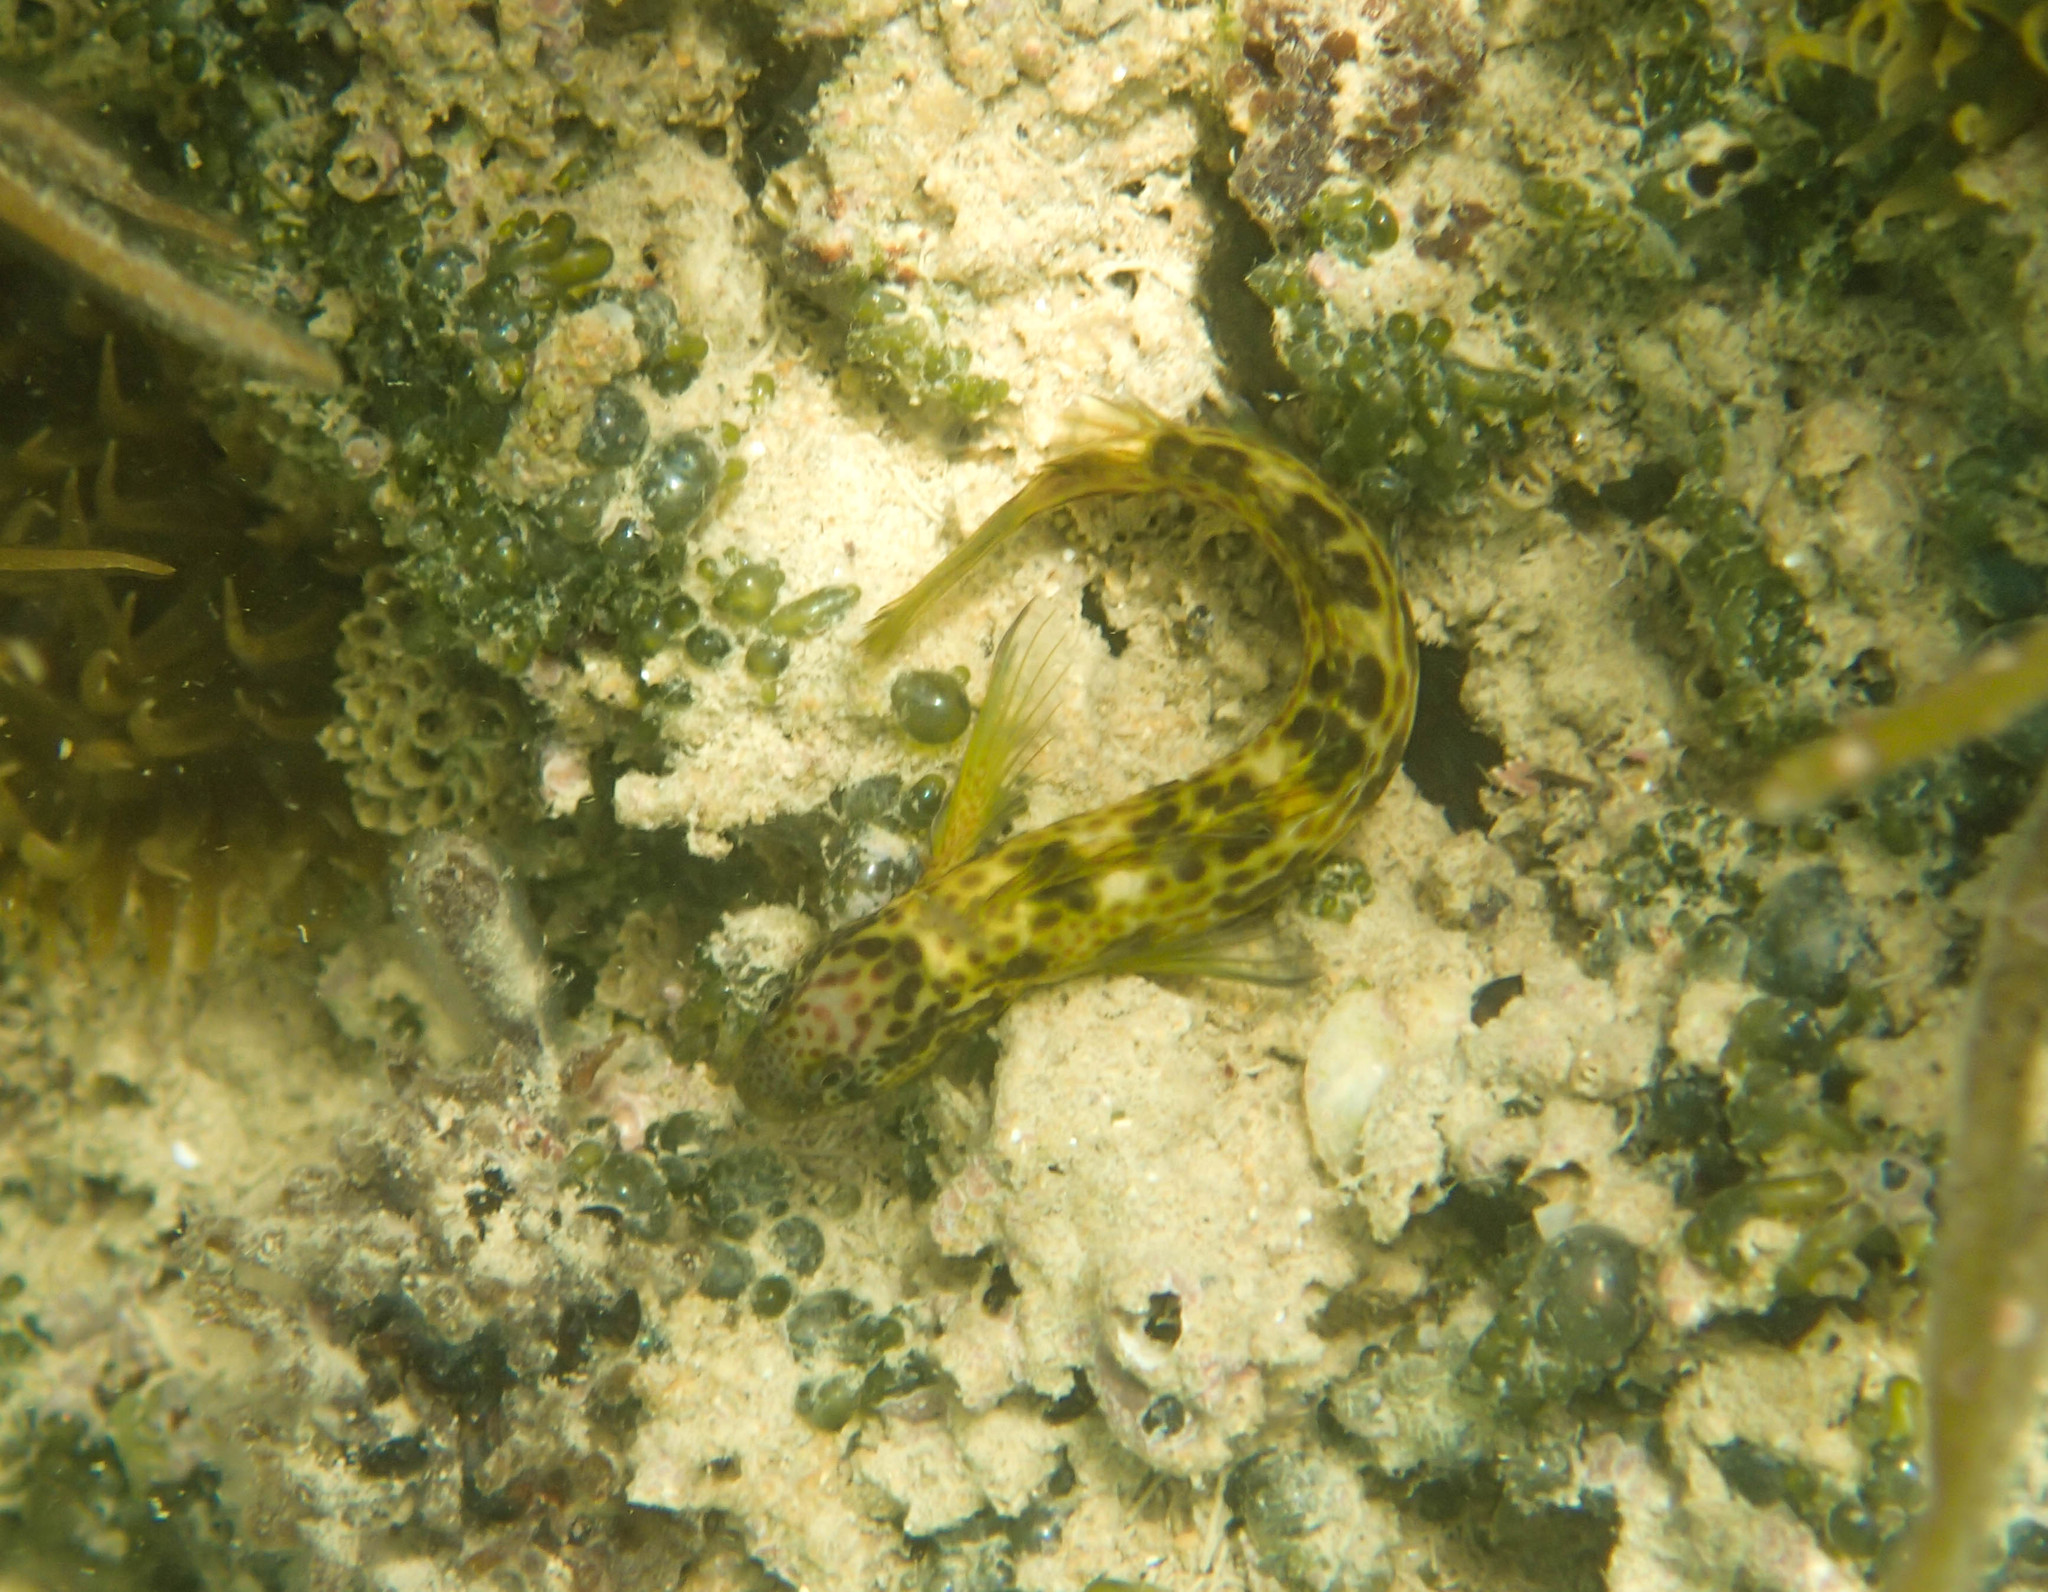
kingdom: Animalia
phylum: Chordata
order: Perciformes
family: Blenniidae
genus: Microlipophrys
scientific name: Microlipophrys canevae
